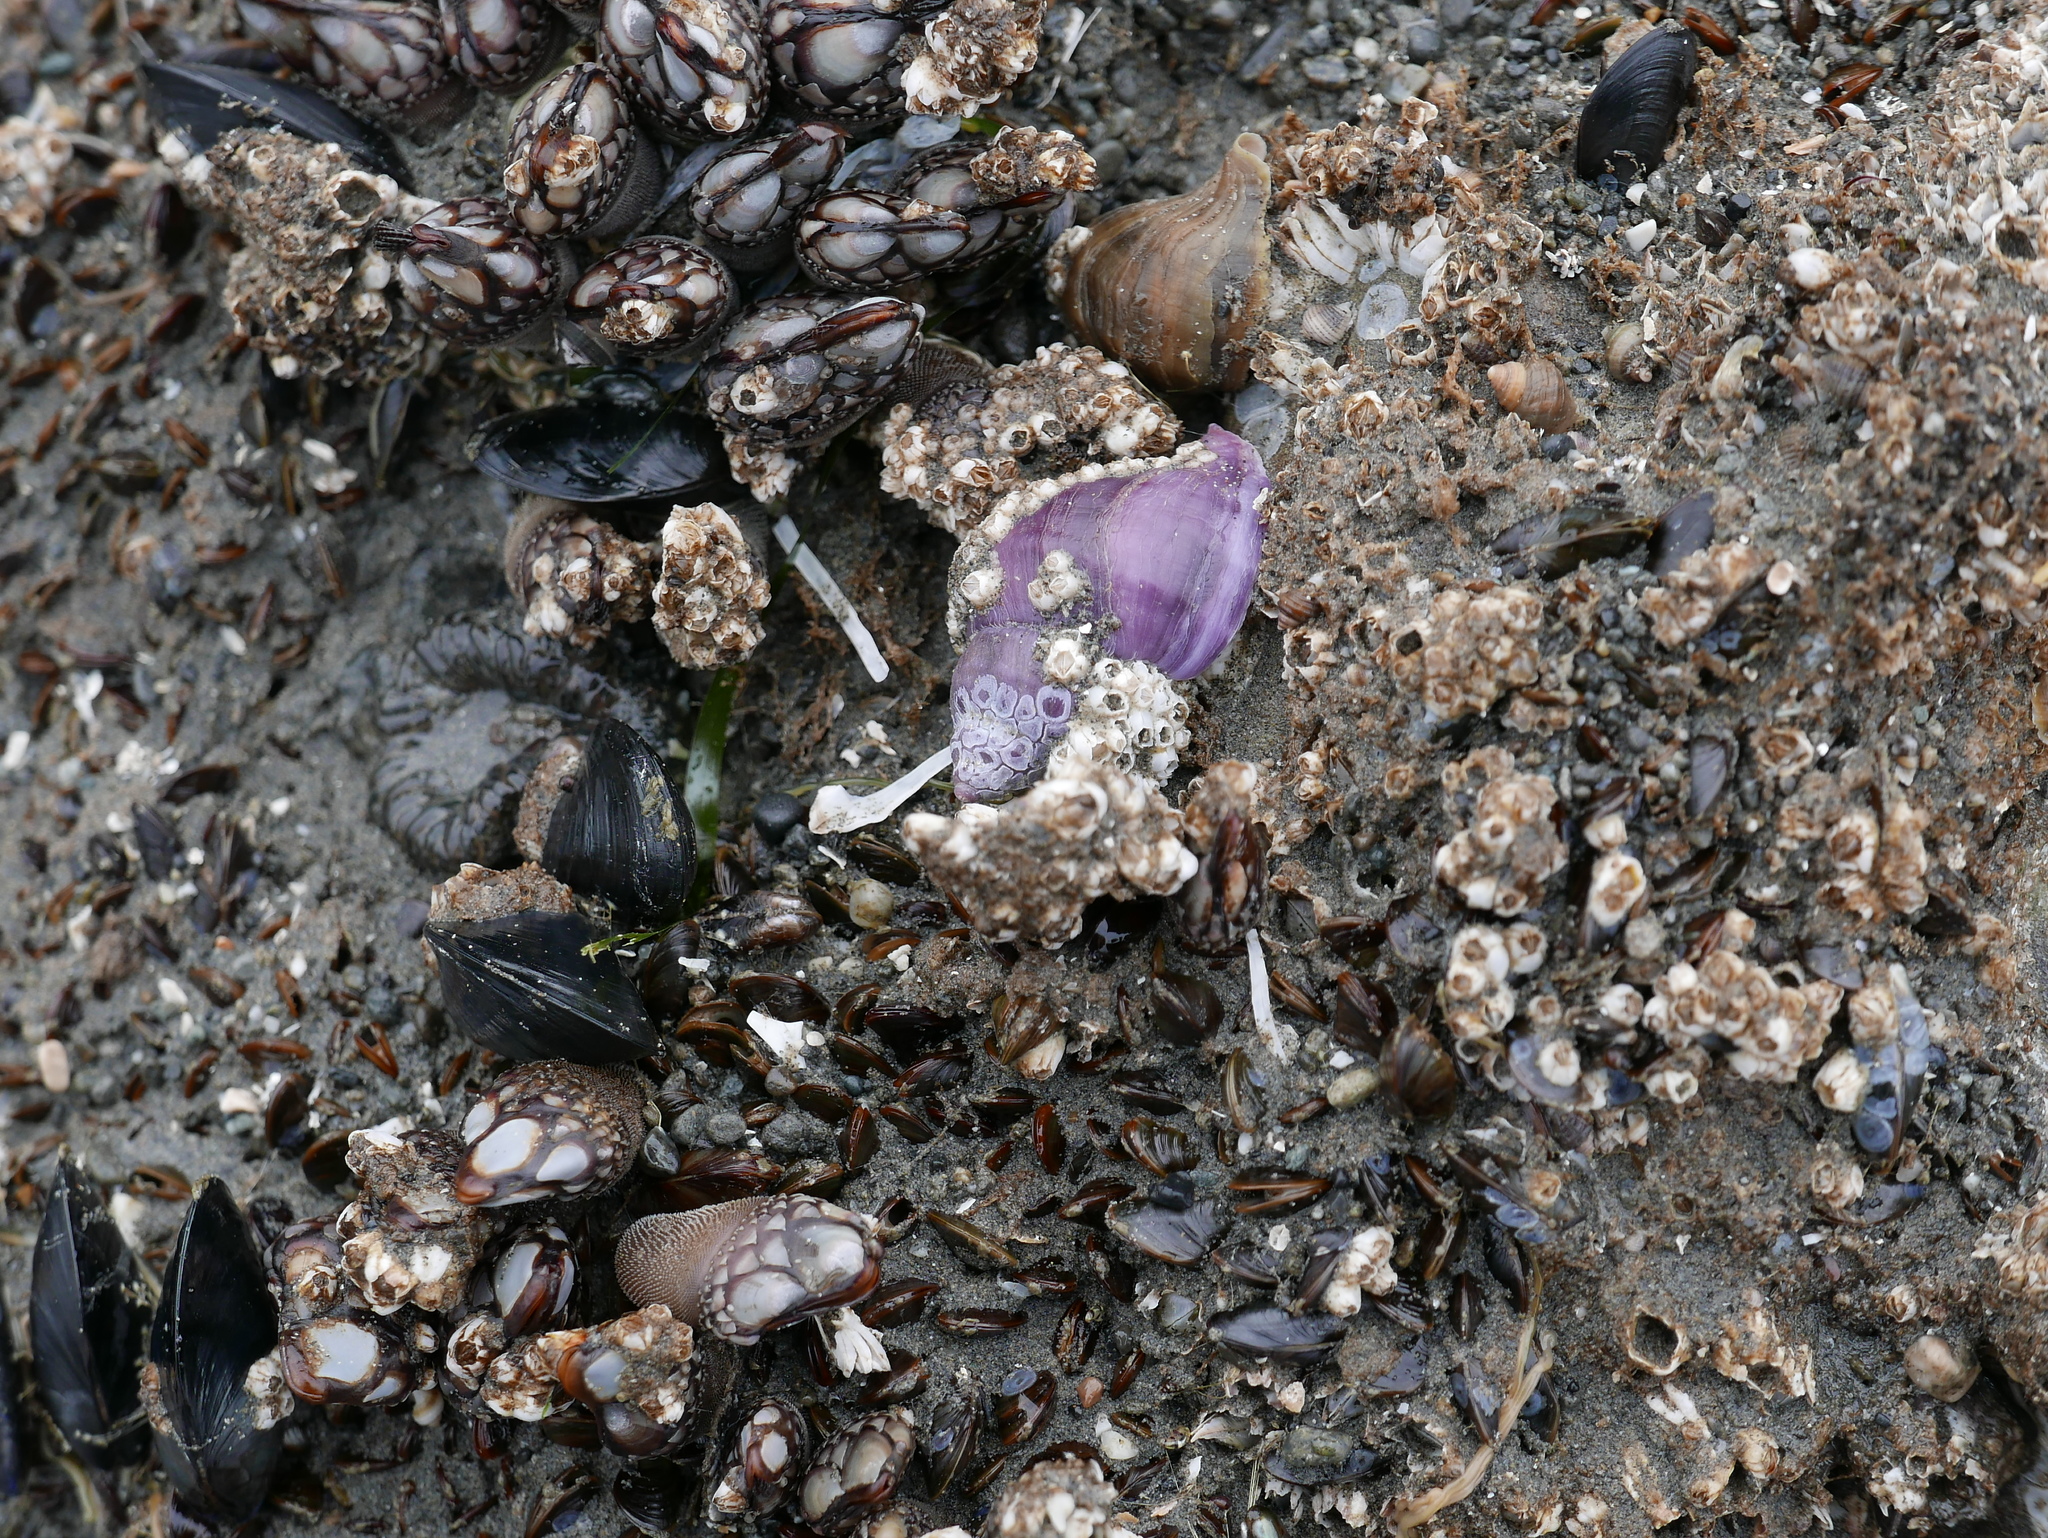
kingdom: Animalia
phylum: Mollusca
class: Gastropoda
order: Neogastropoda
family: Muricidae
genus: Nucella
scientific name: Nucella lamellosa
